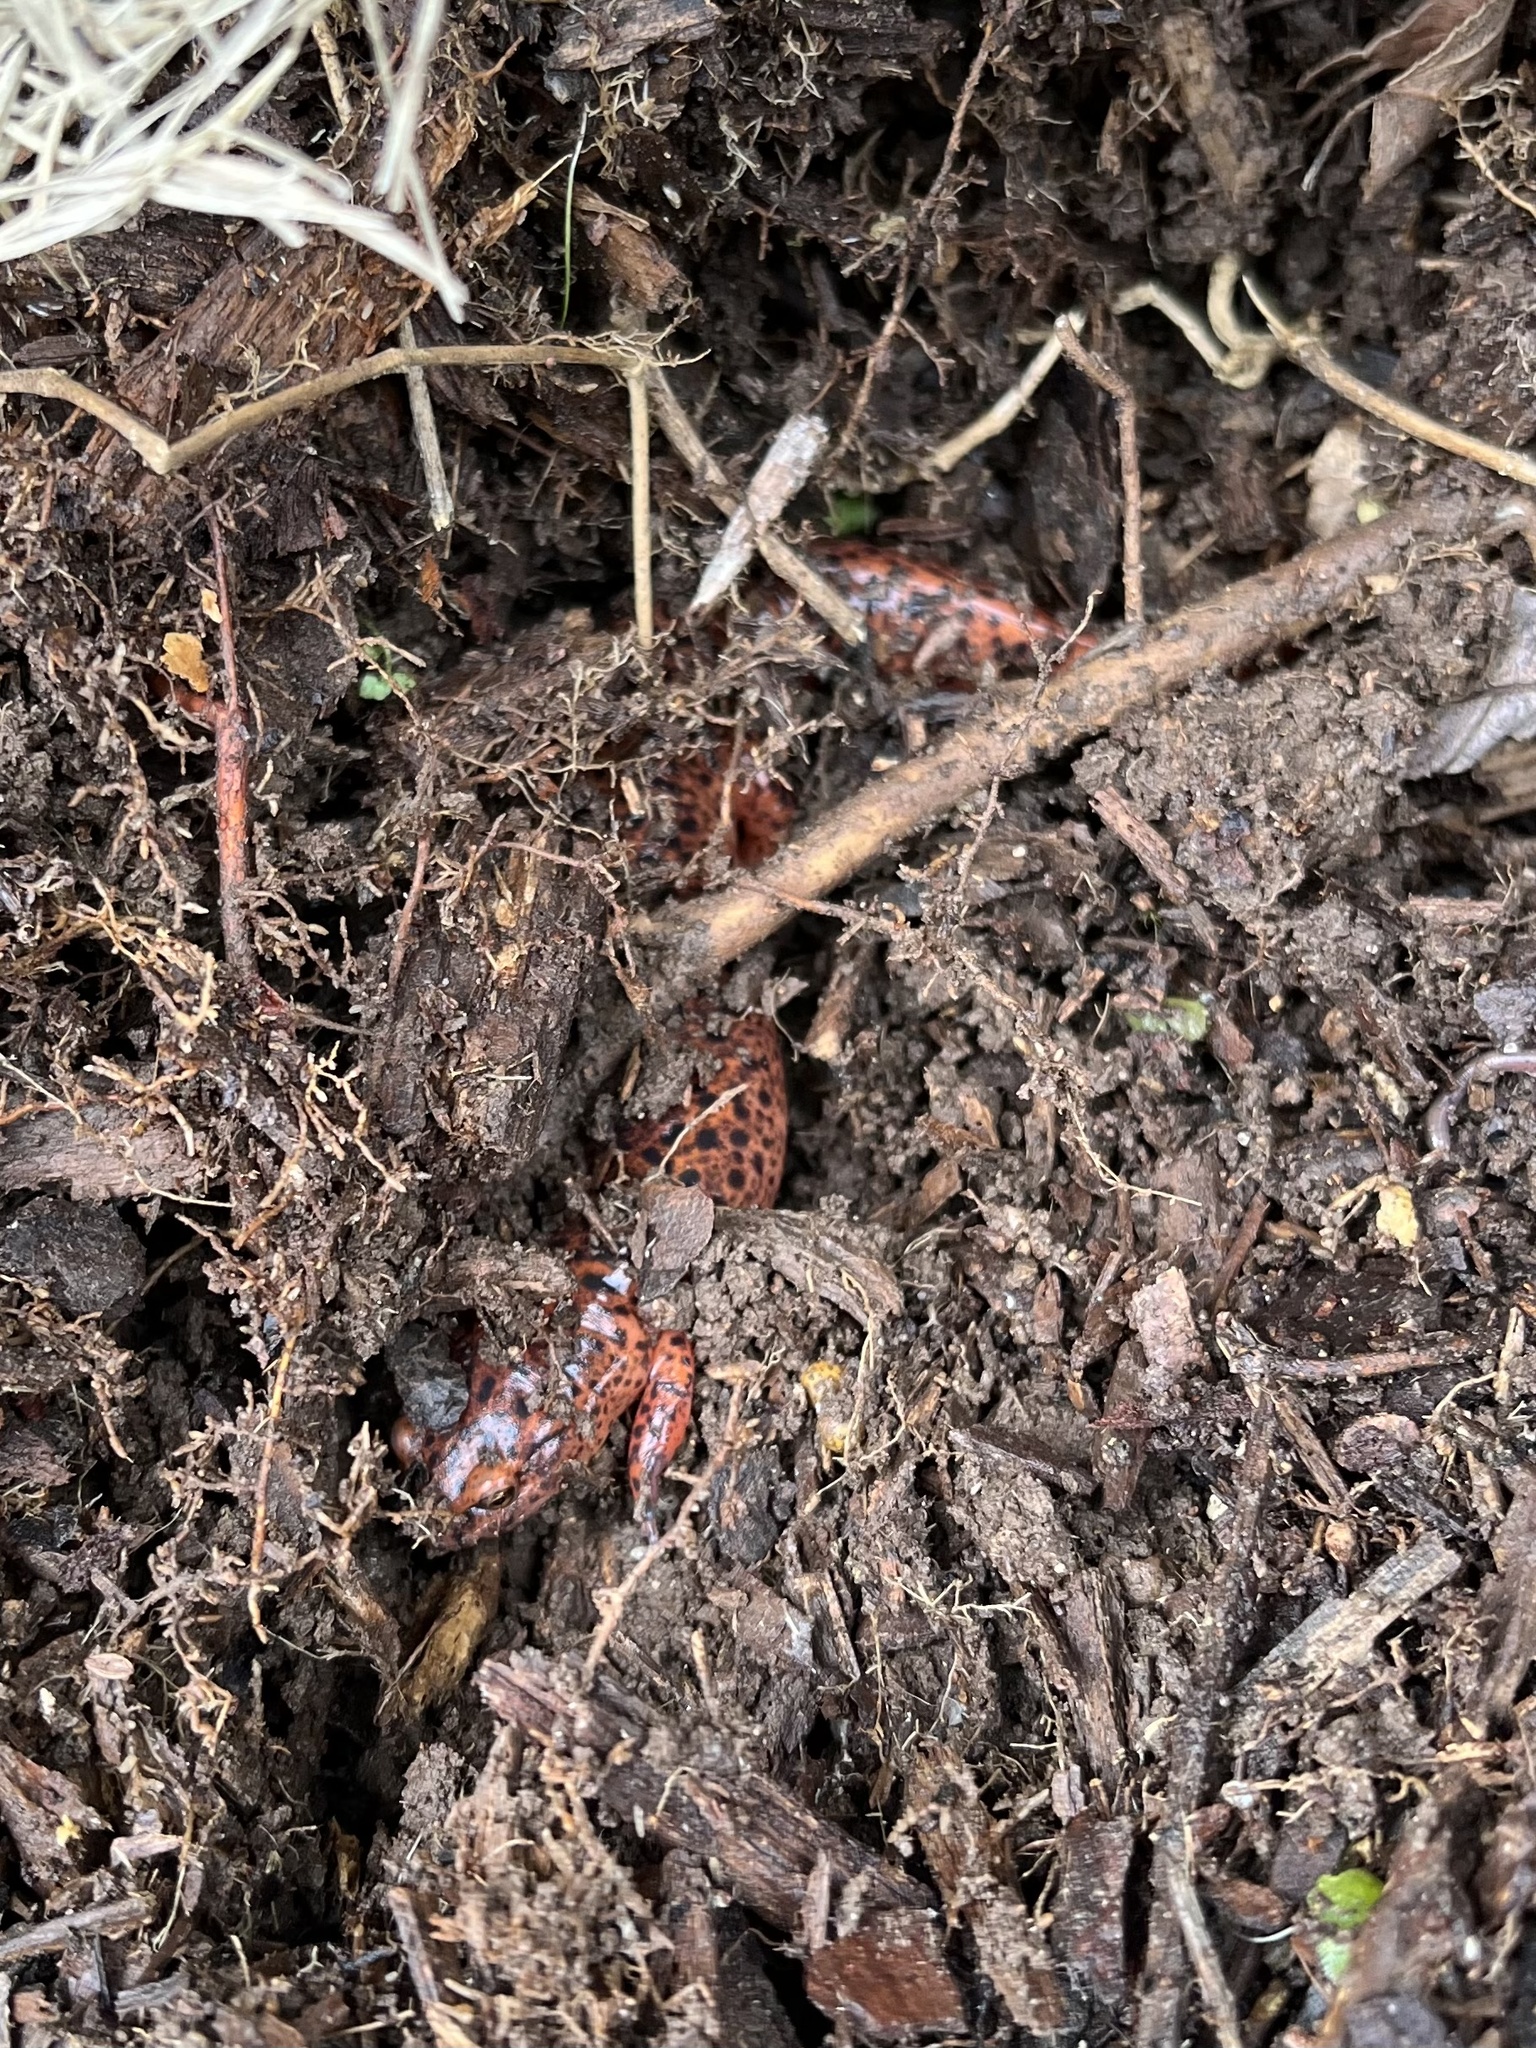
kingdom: Animalia
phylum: Chordata
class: Amphibia
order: Caudata
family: Plethodontidae
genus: Pseudotriton
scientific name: Pseudotriton ruber
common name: Red salamander
